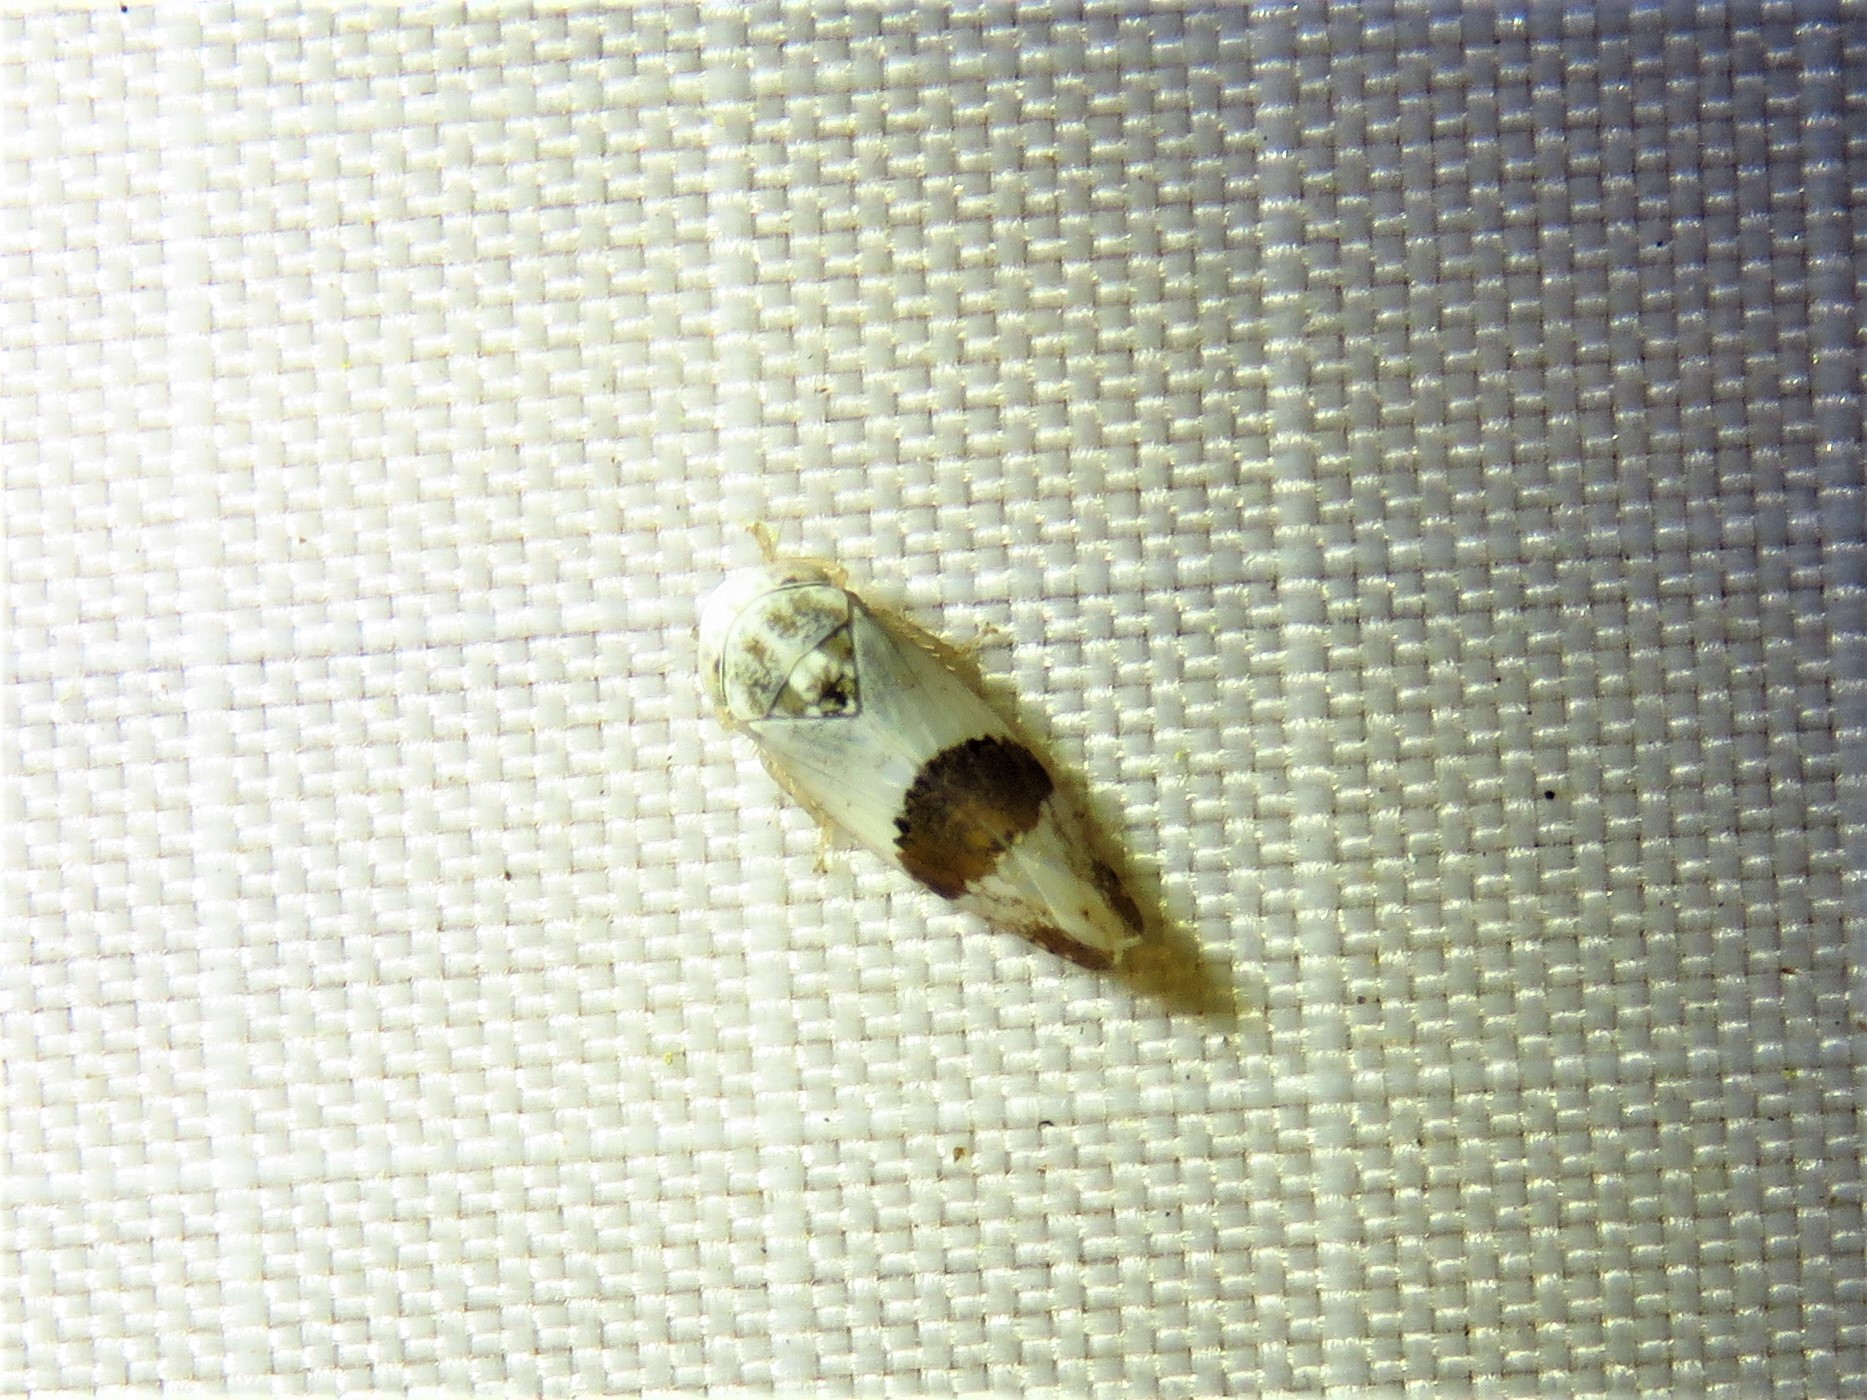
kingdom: Animalia
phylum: Arthropoda
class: Insecta
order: Hemiptera
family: Cicadellidae
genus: Norvellina
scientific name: Norvellina seminuda
